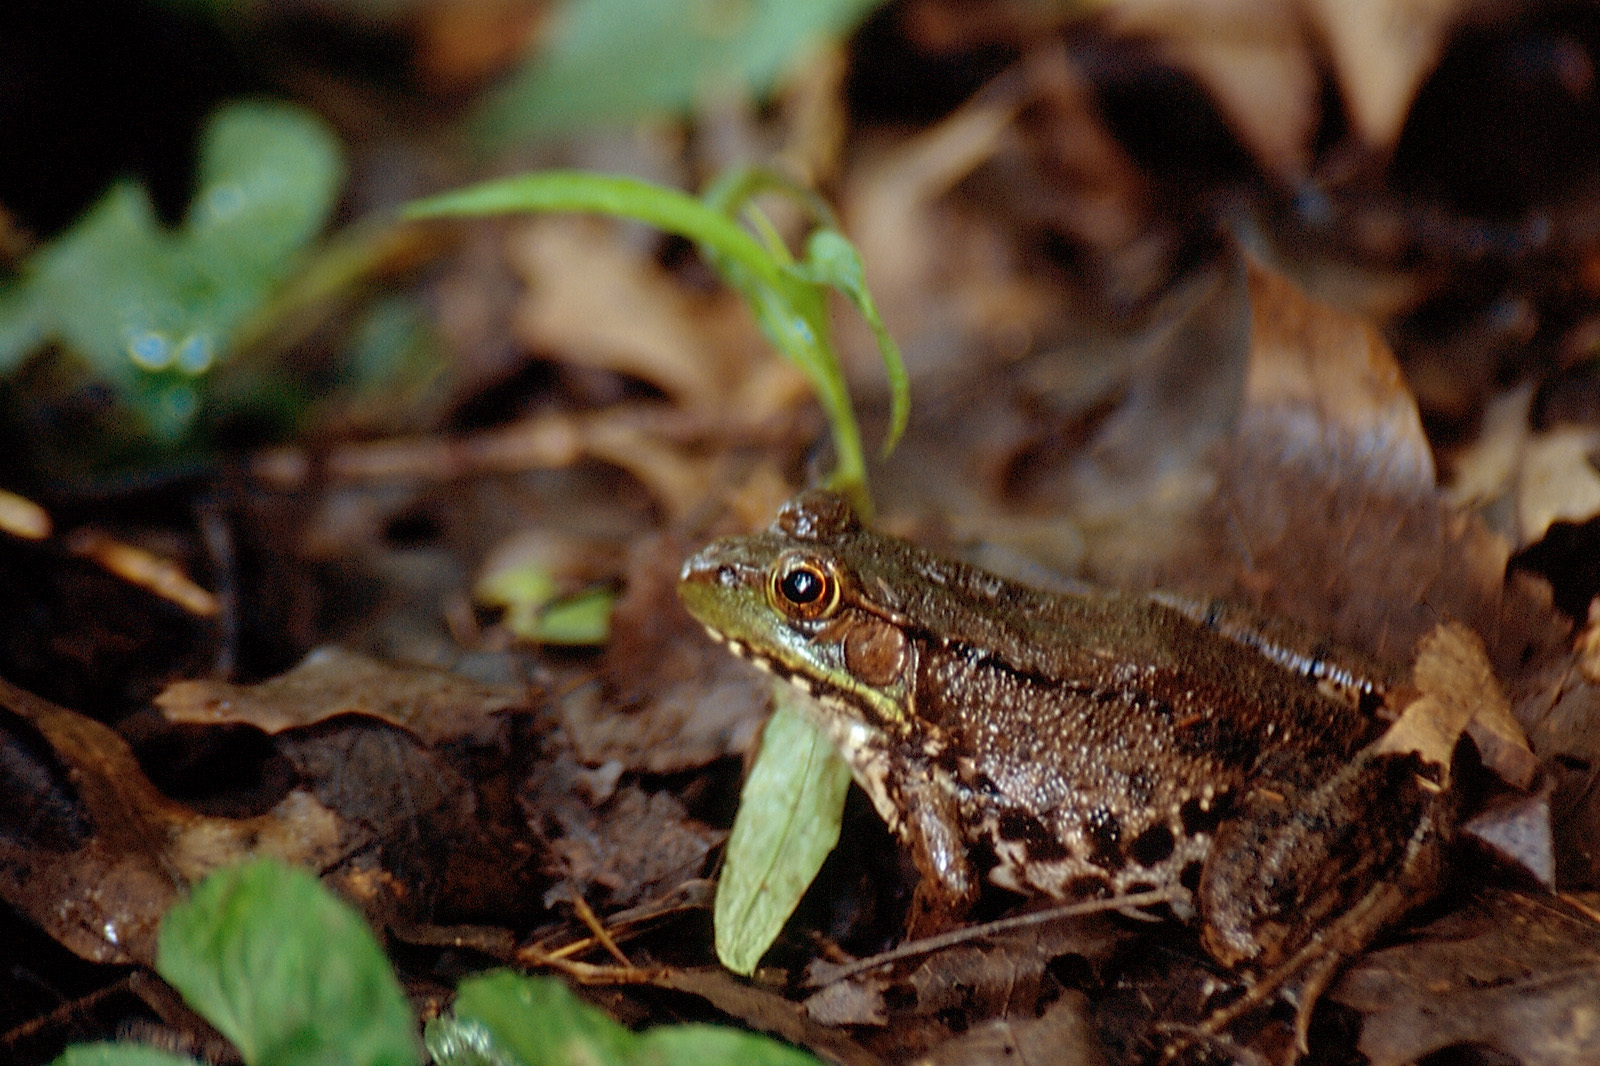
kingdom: Animalia
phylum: Chordata
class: Amphibia
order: Anura
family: Ranidae
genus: Lithobates
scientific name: Lithobates clamitans
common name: Green frog
